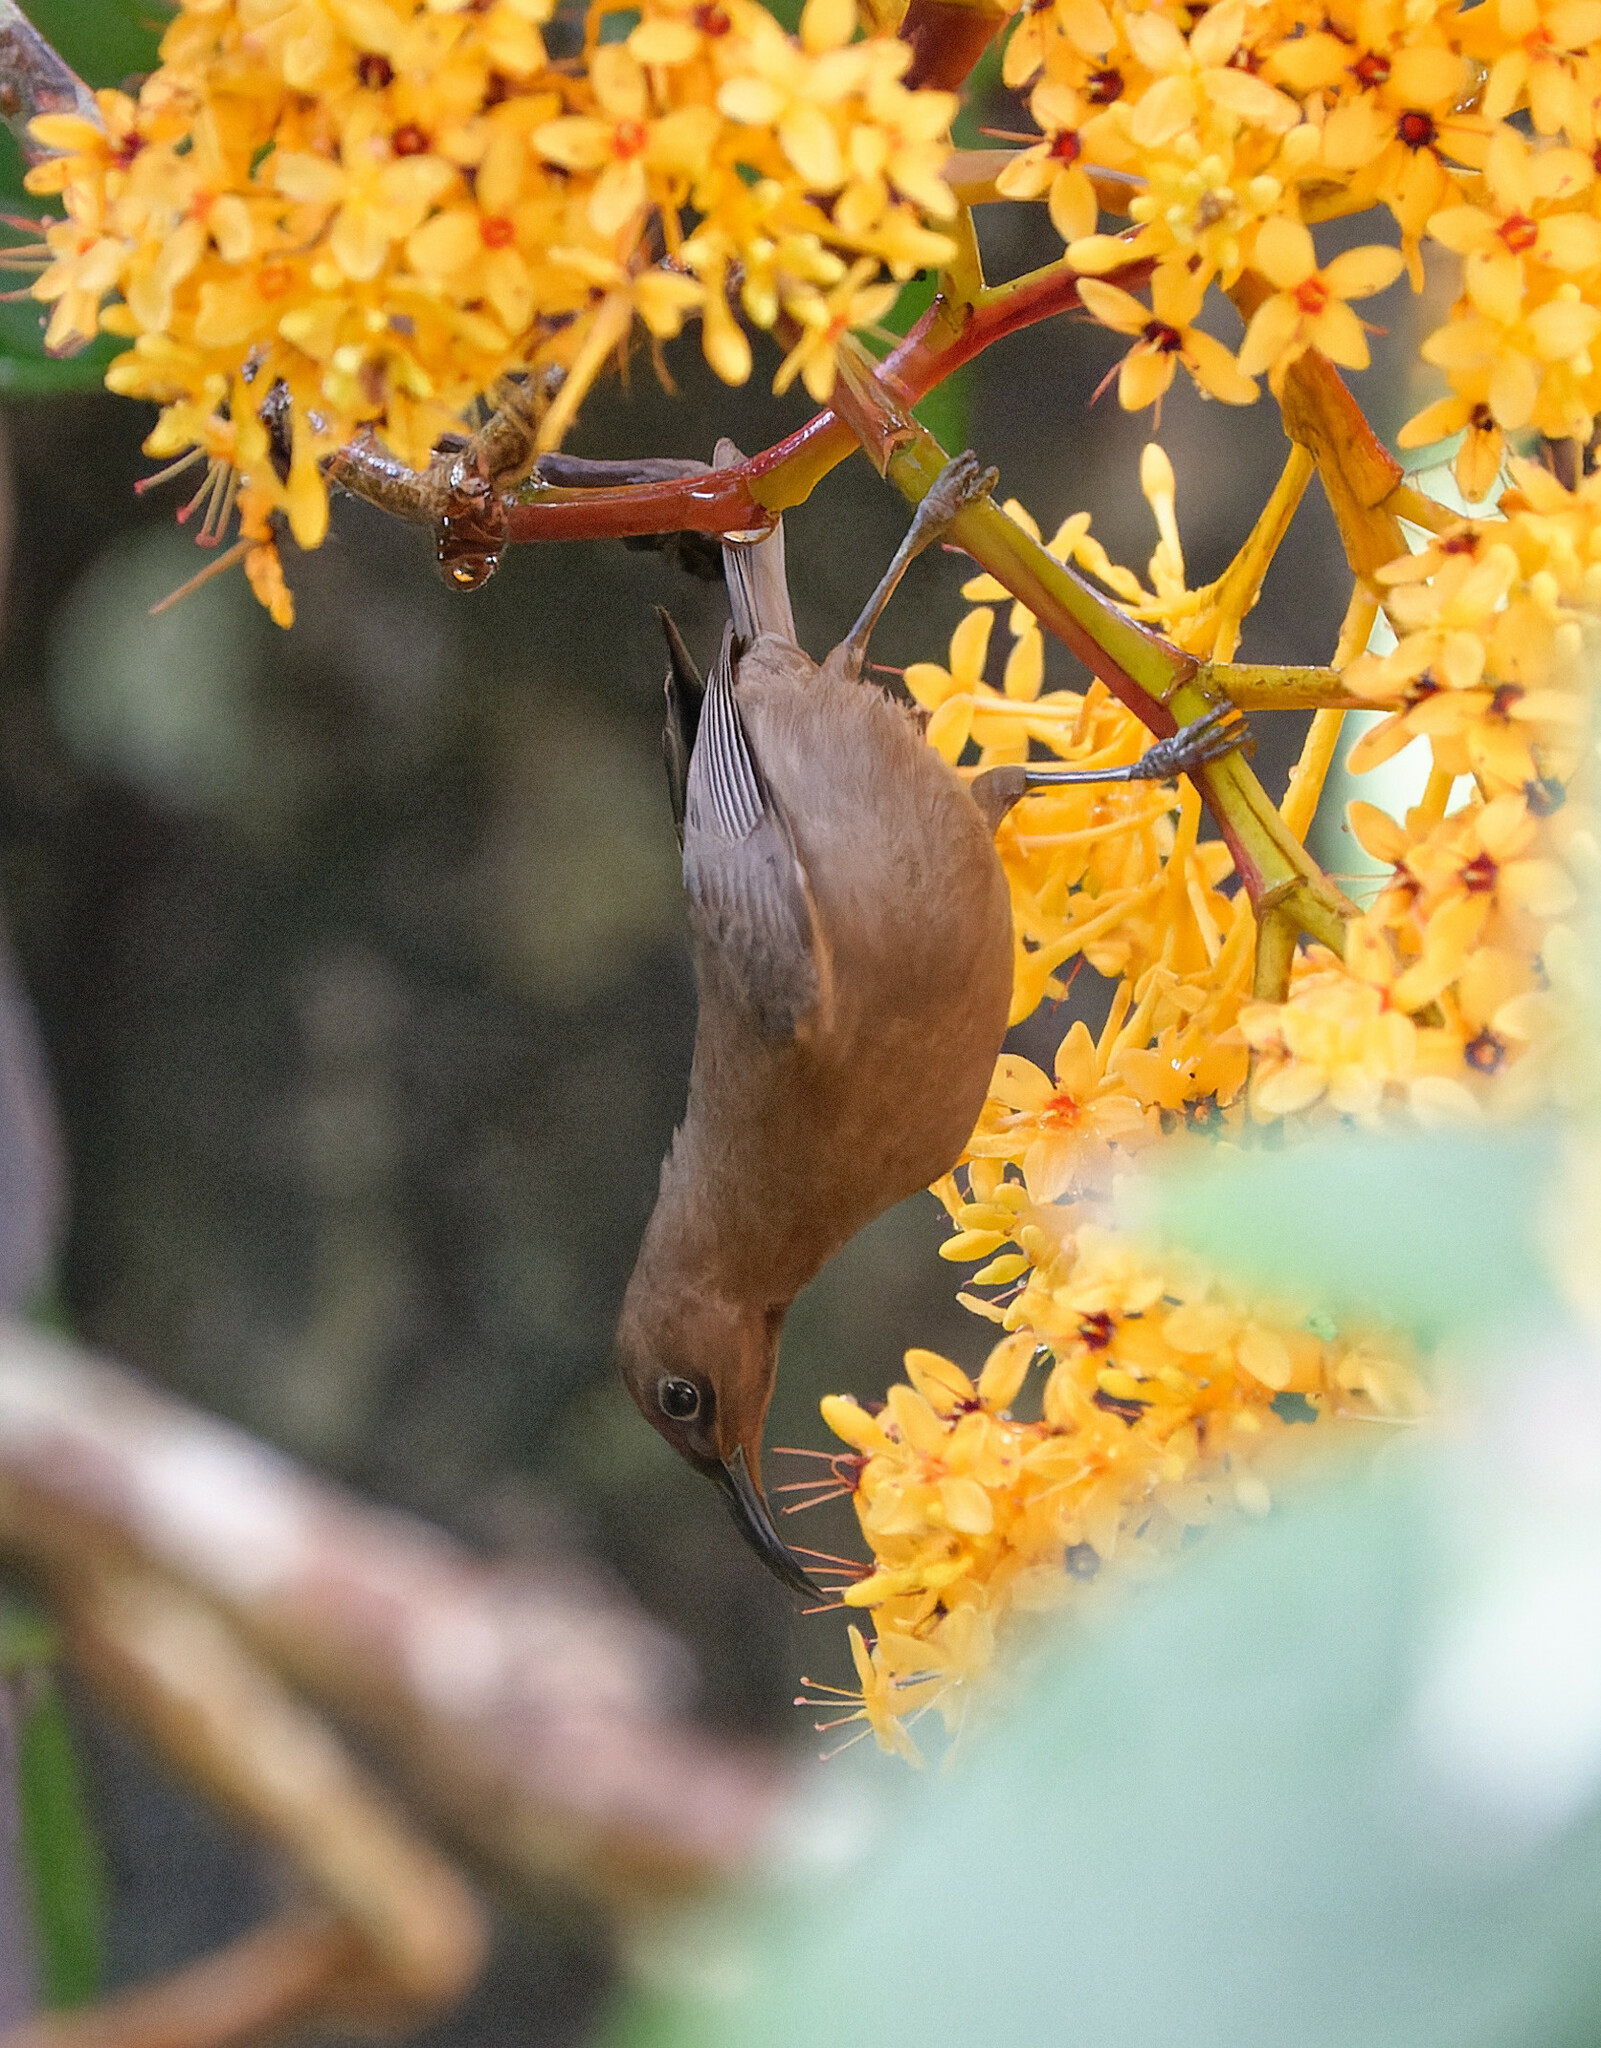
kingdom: Animalia
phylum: Chordata
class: Aves
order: Passeriformes
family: Meliphagidae
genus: Myzomela
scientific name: Myzomela obscura
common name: Dusky myzomela
